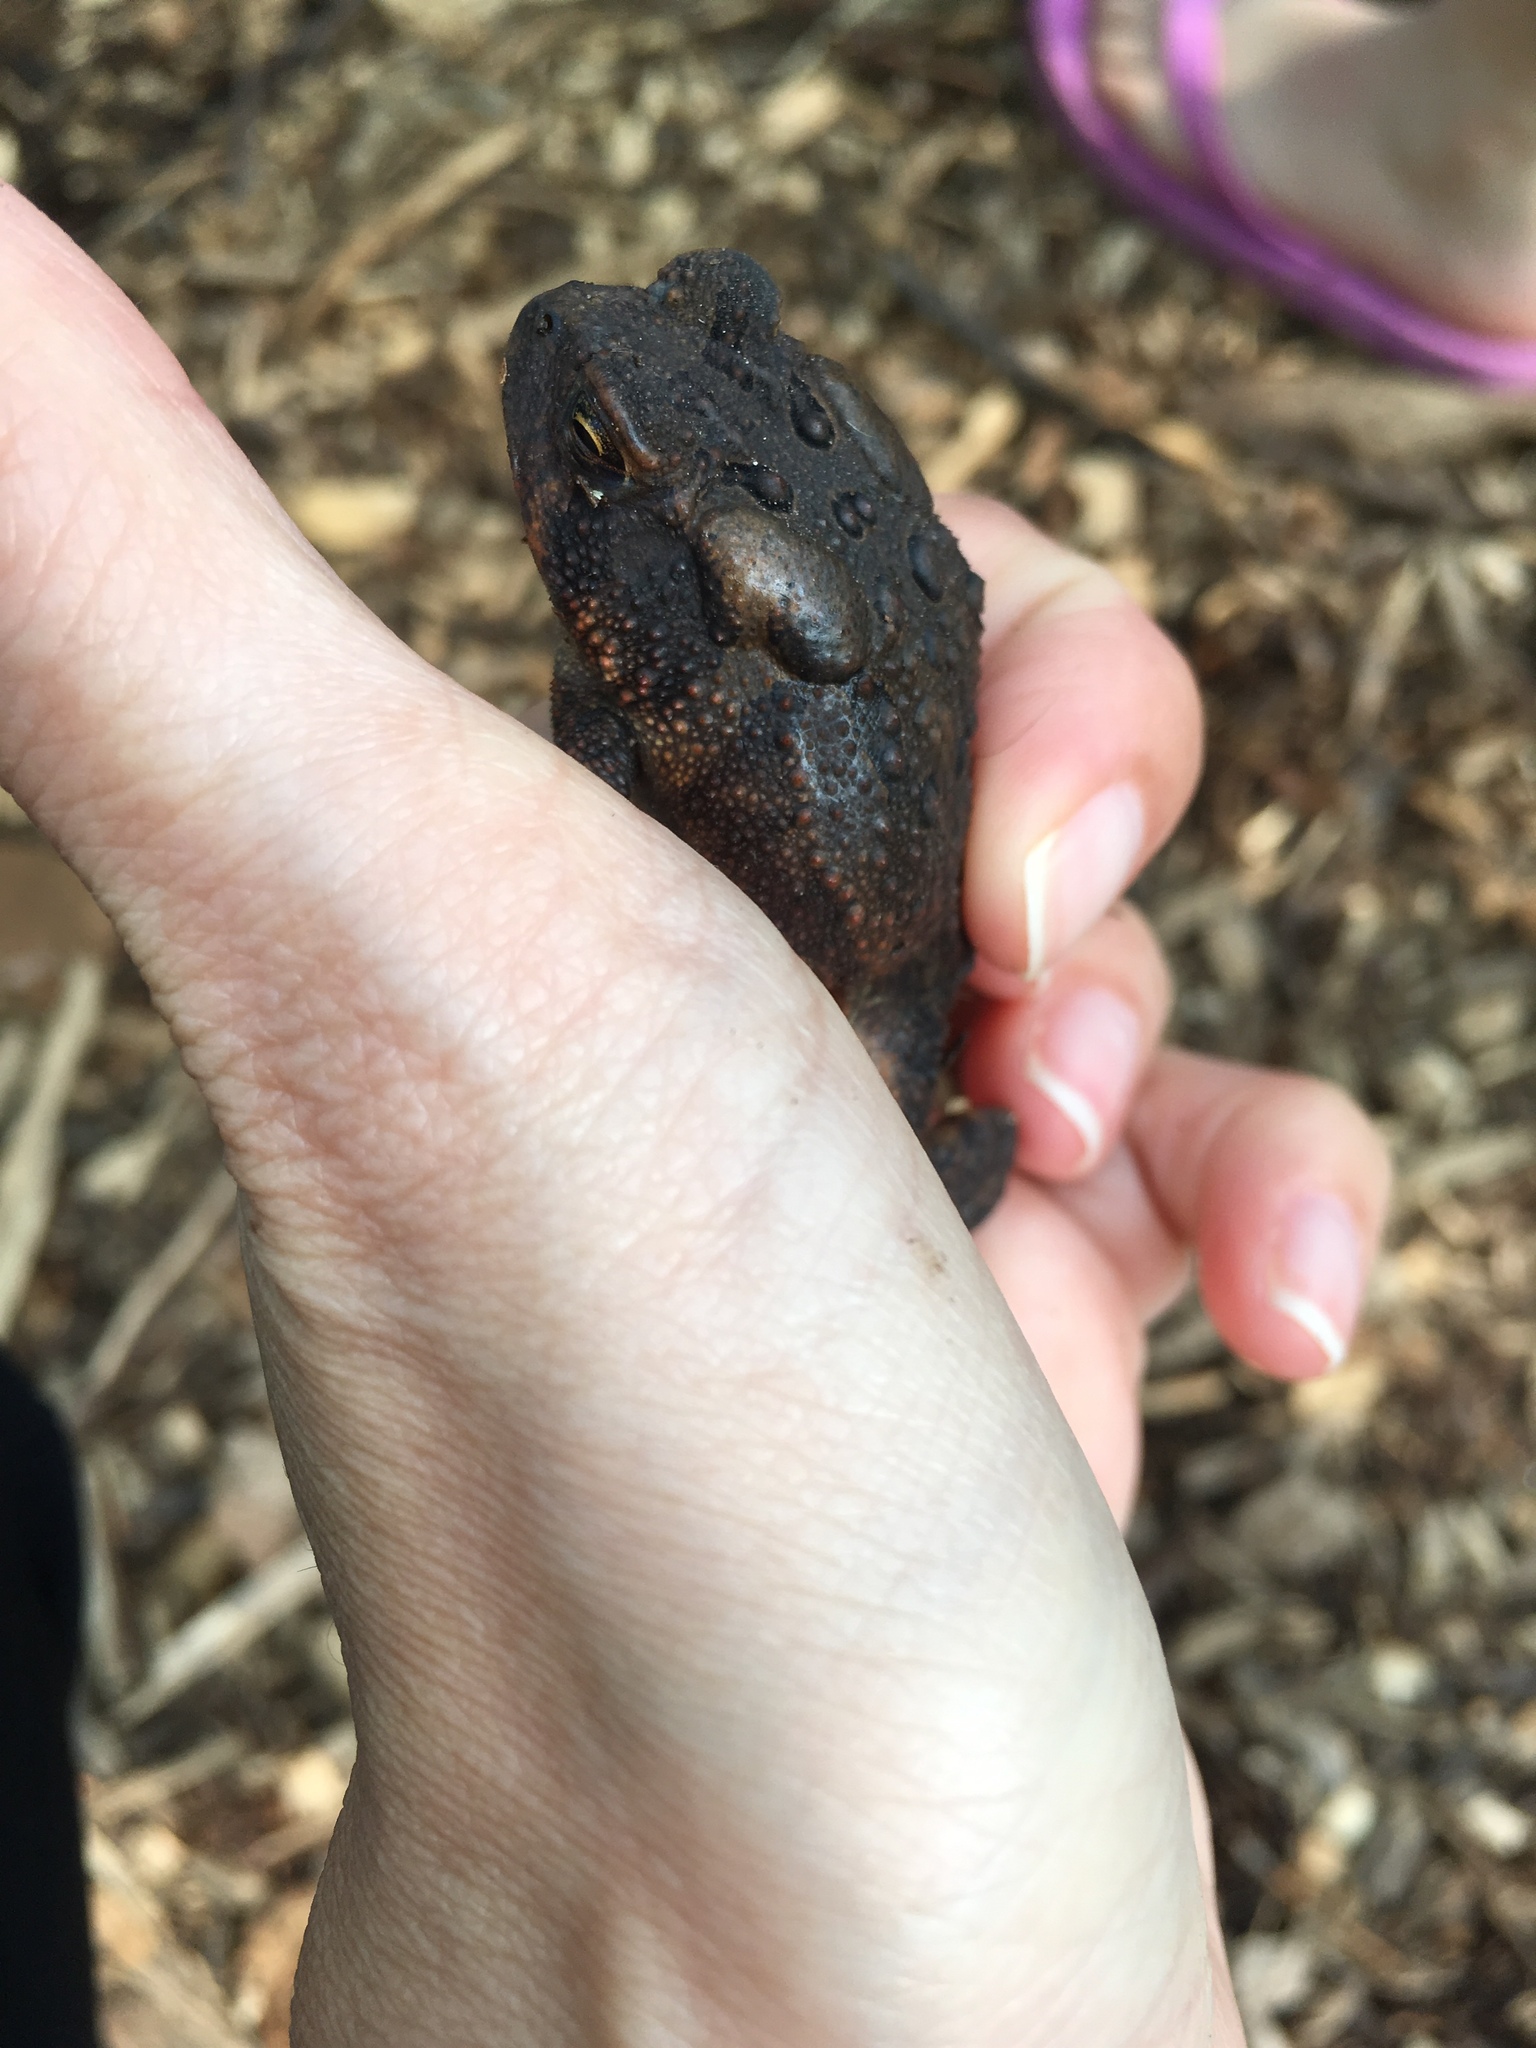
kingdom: Animalia
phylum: Chordata
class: Amphibia
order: Anura
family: Bufonidae
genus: Anaxyrus
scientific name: Anaxyrus americanus
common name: American toad
